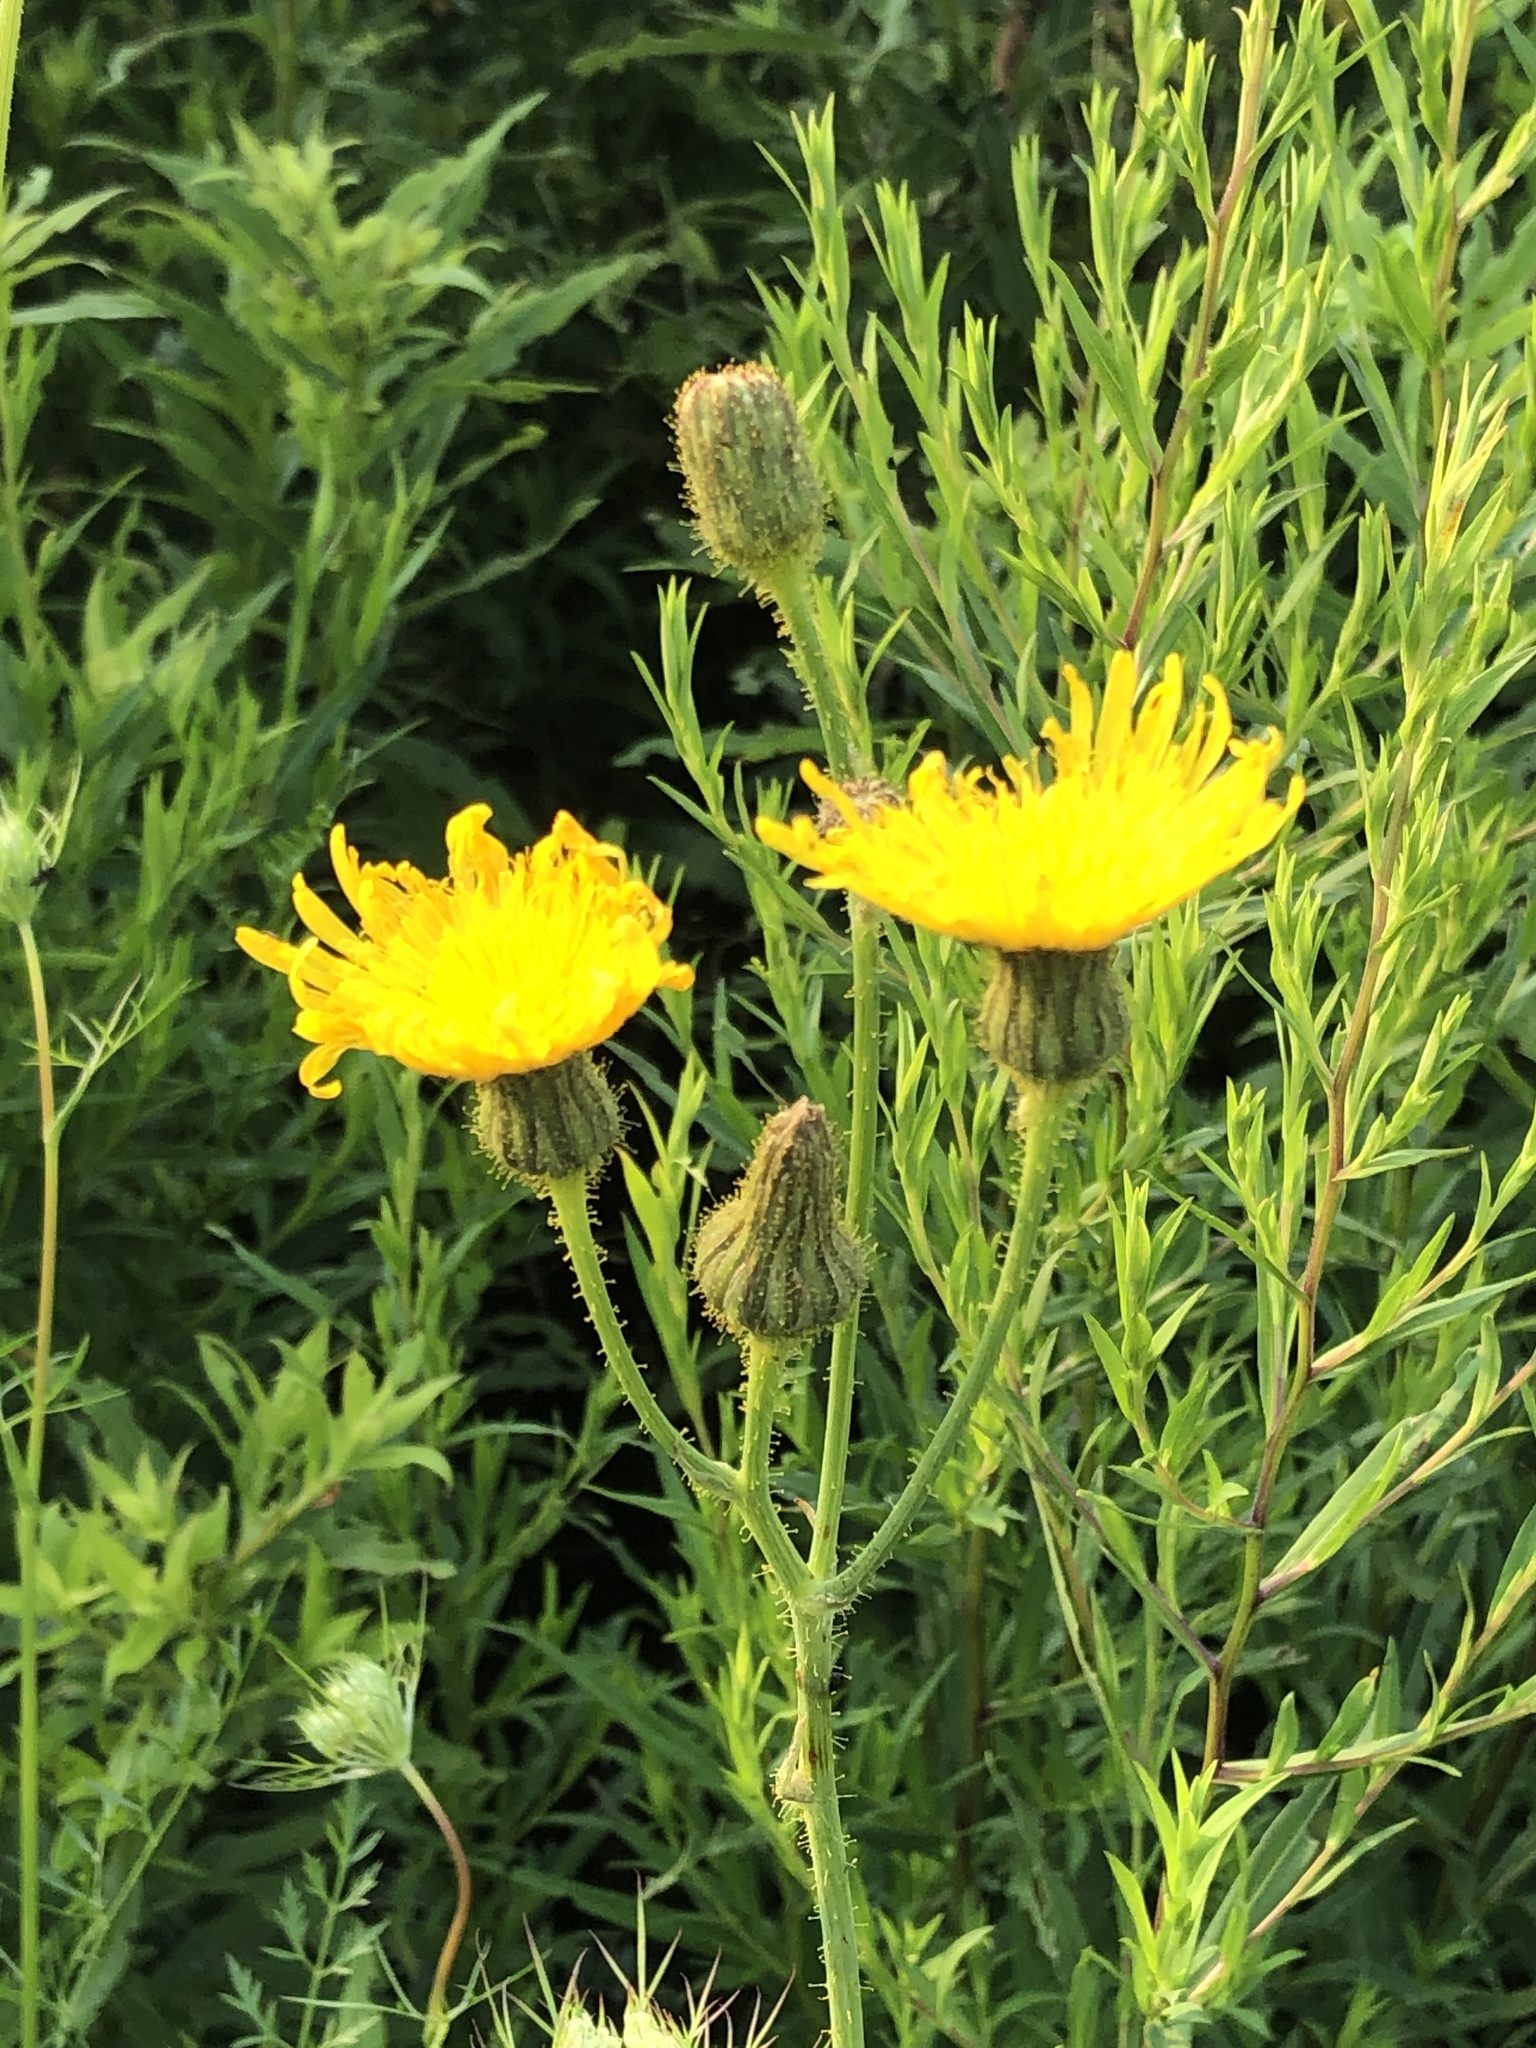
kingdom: Plantae
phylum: Tracheophyta
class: Magnoliopsida
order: Asterales
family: Asteraceae
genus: Sonchus
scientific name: Sonchus arvensis
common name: Perennial sow-thistle
